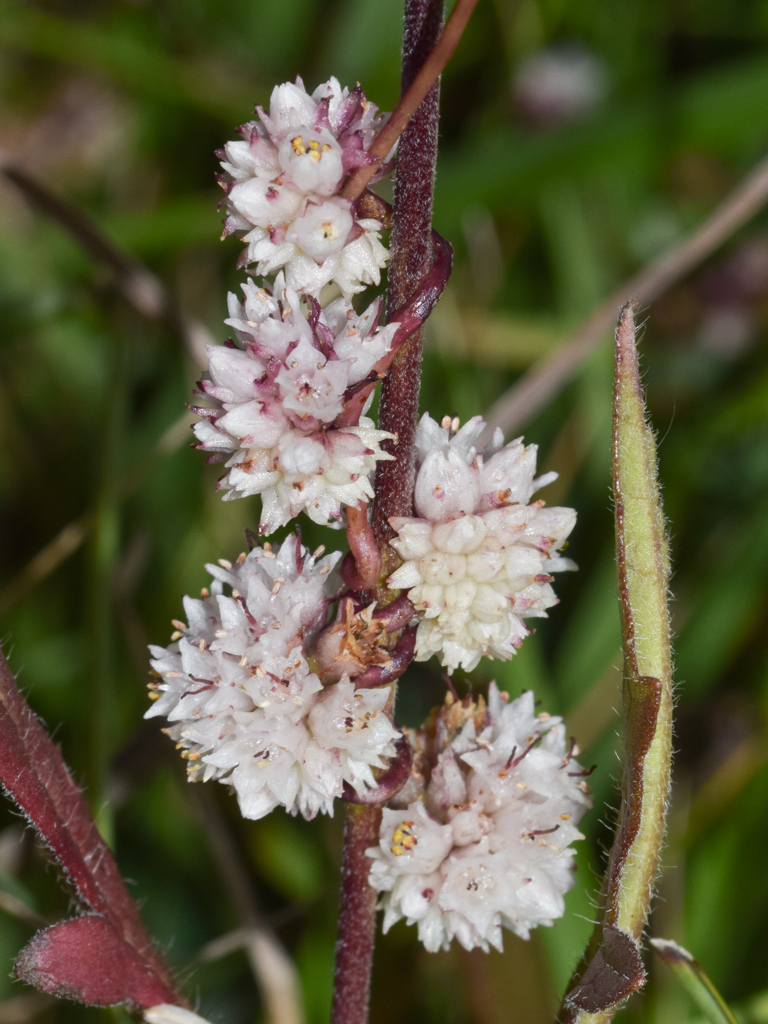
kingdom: Plantae
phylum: Tracheophyta
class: Magnoliopsida
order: Solanales
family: Convolvulaceae
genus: Cuscuta
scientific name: Cuscuta epithymum
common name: Clover dodder
